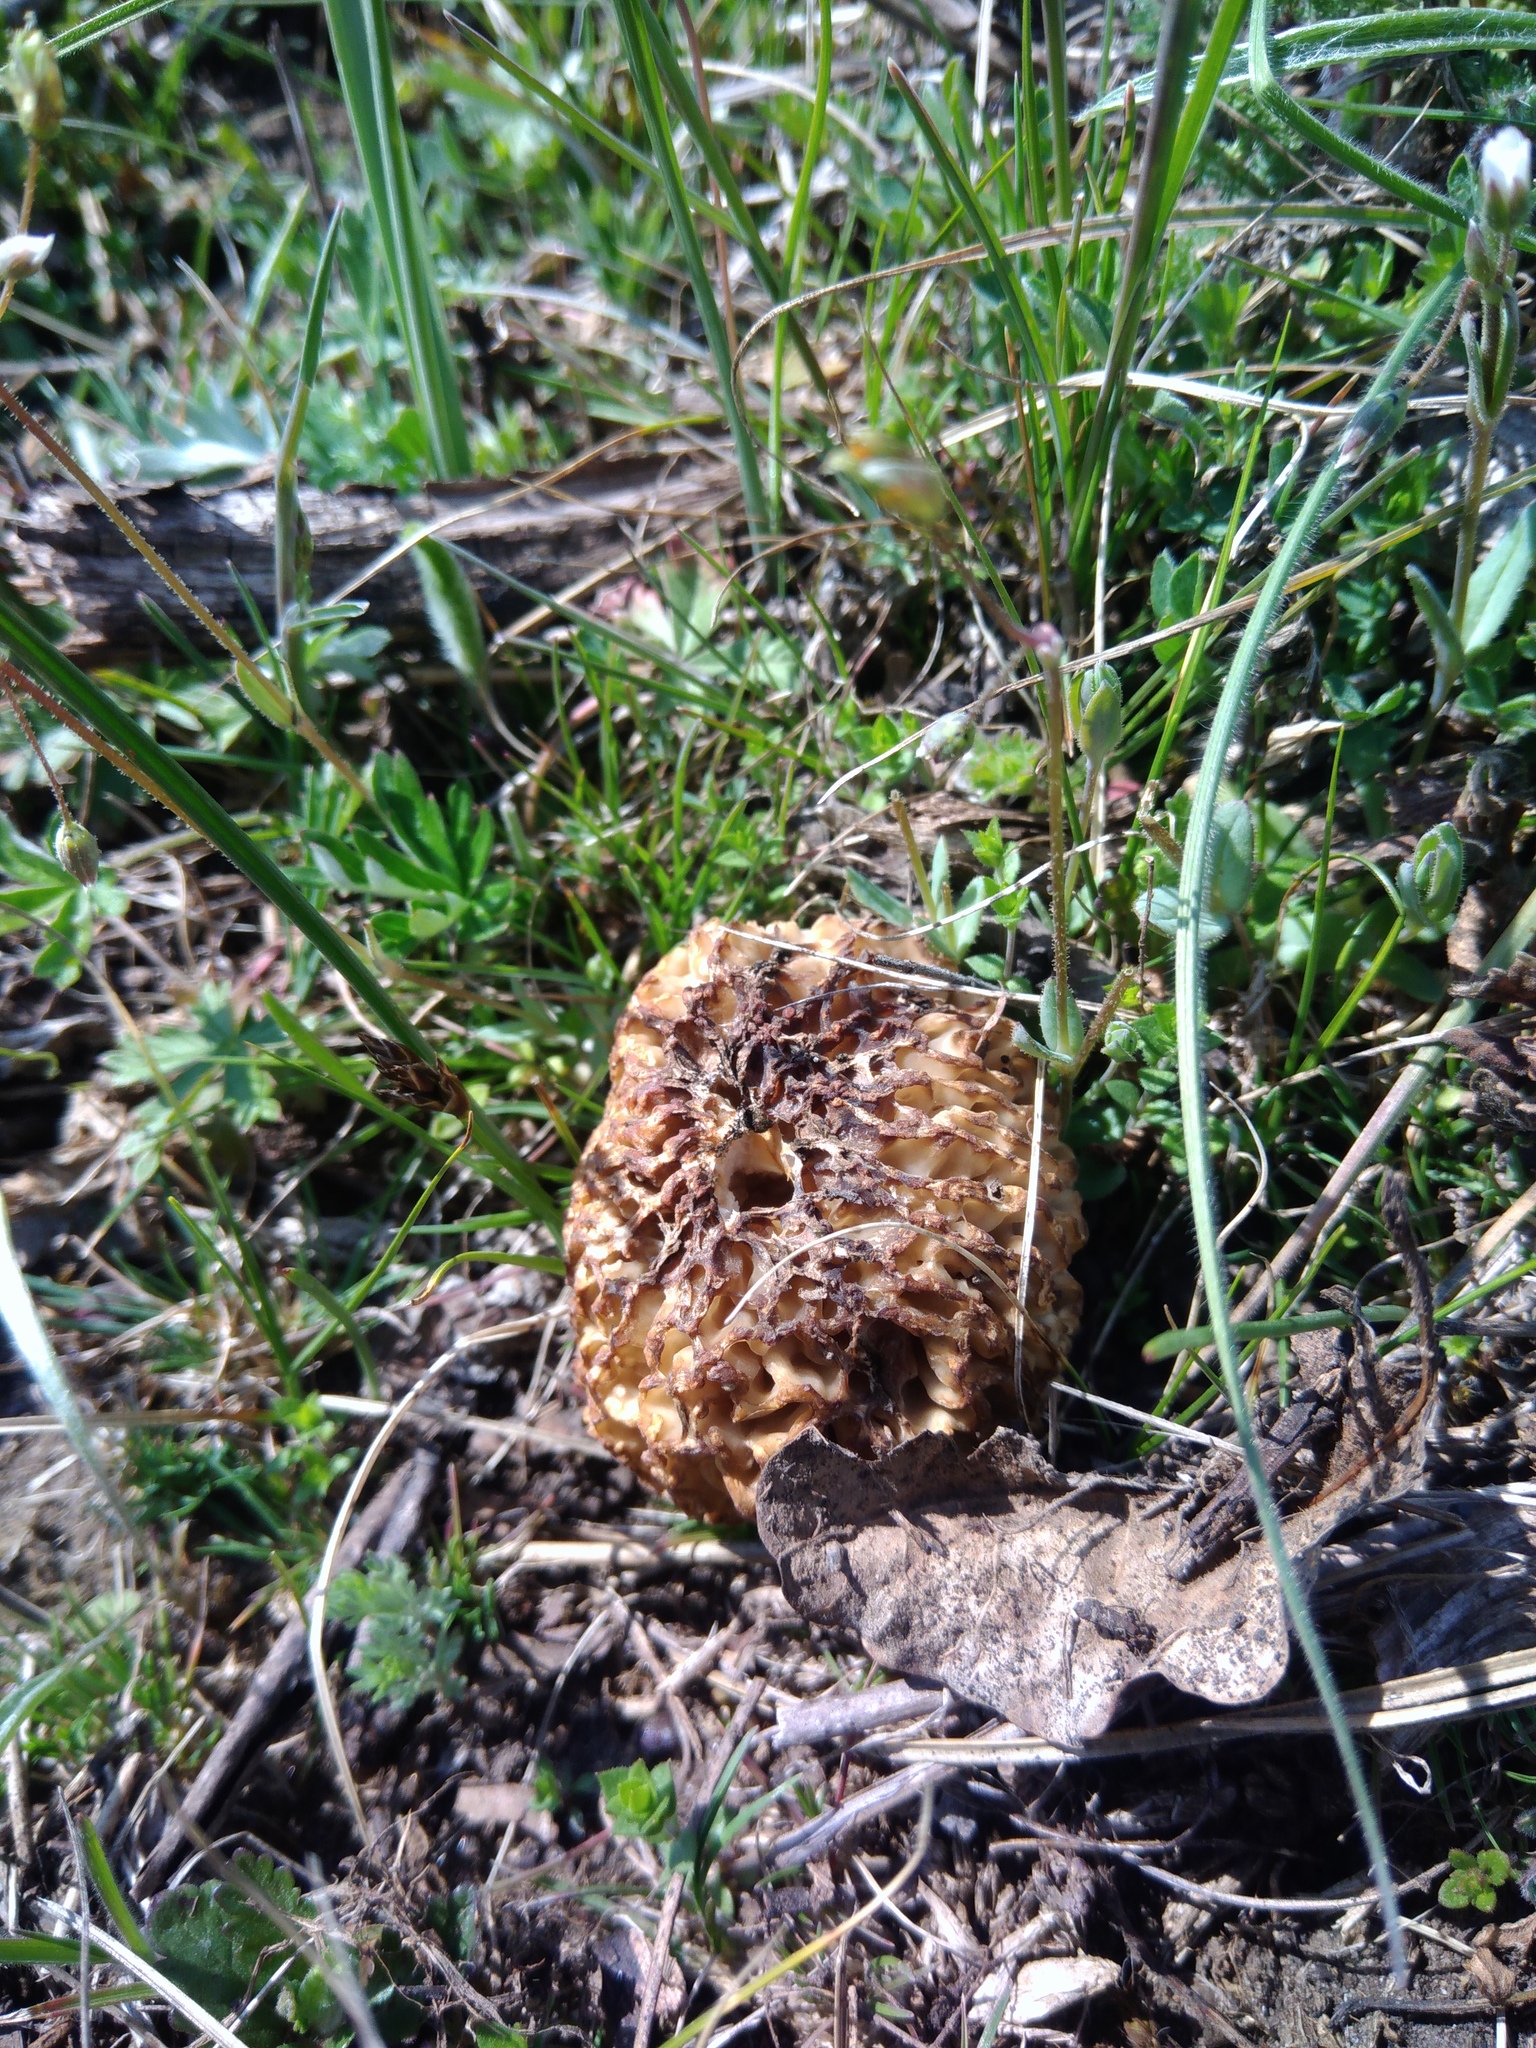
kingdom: Fungi
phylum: Ascomycota
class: Pezizomycetes
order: Pezizales
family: Morchellaceae
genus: Morchella
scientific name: Morchella steppicola
